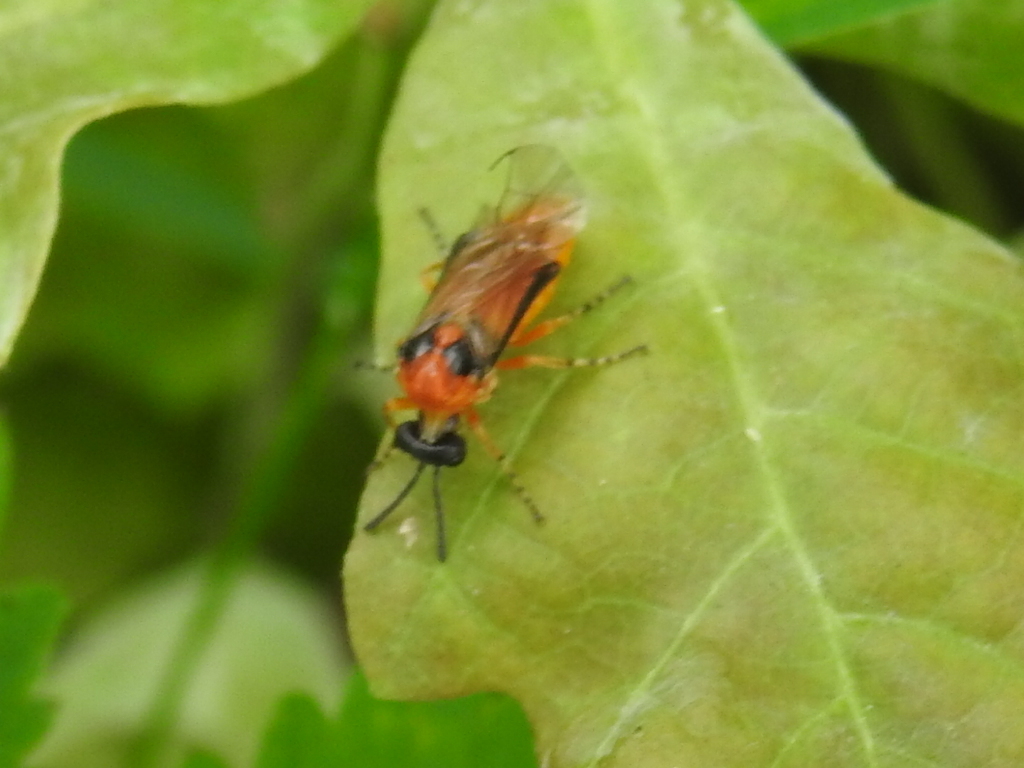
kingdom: Animalia
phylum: Arthropoda
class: Insecta
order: Hymenoptera
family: Tenthredinidae
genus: Athalia
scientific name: Athalia rosae
